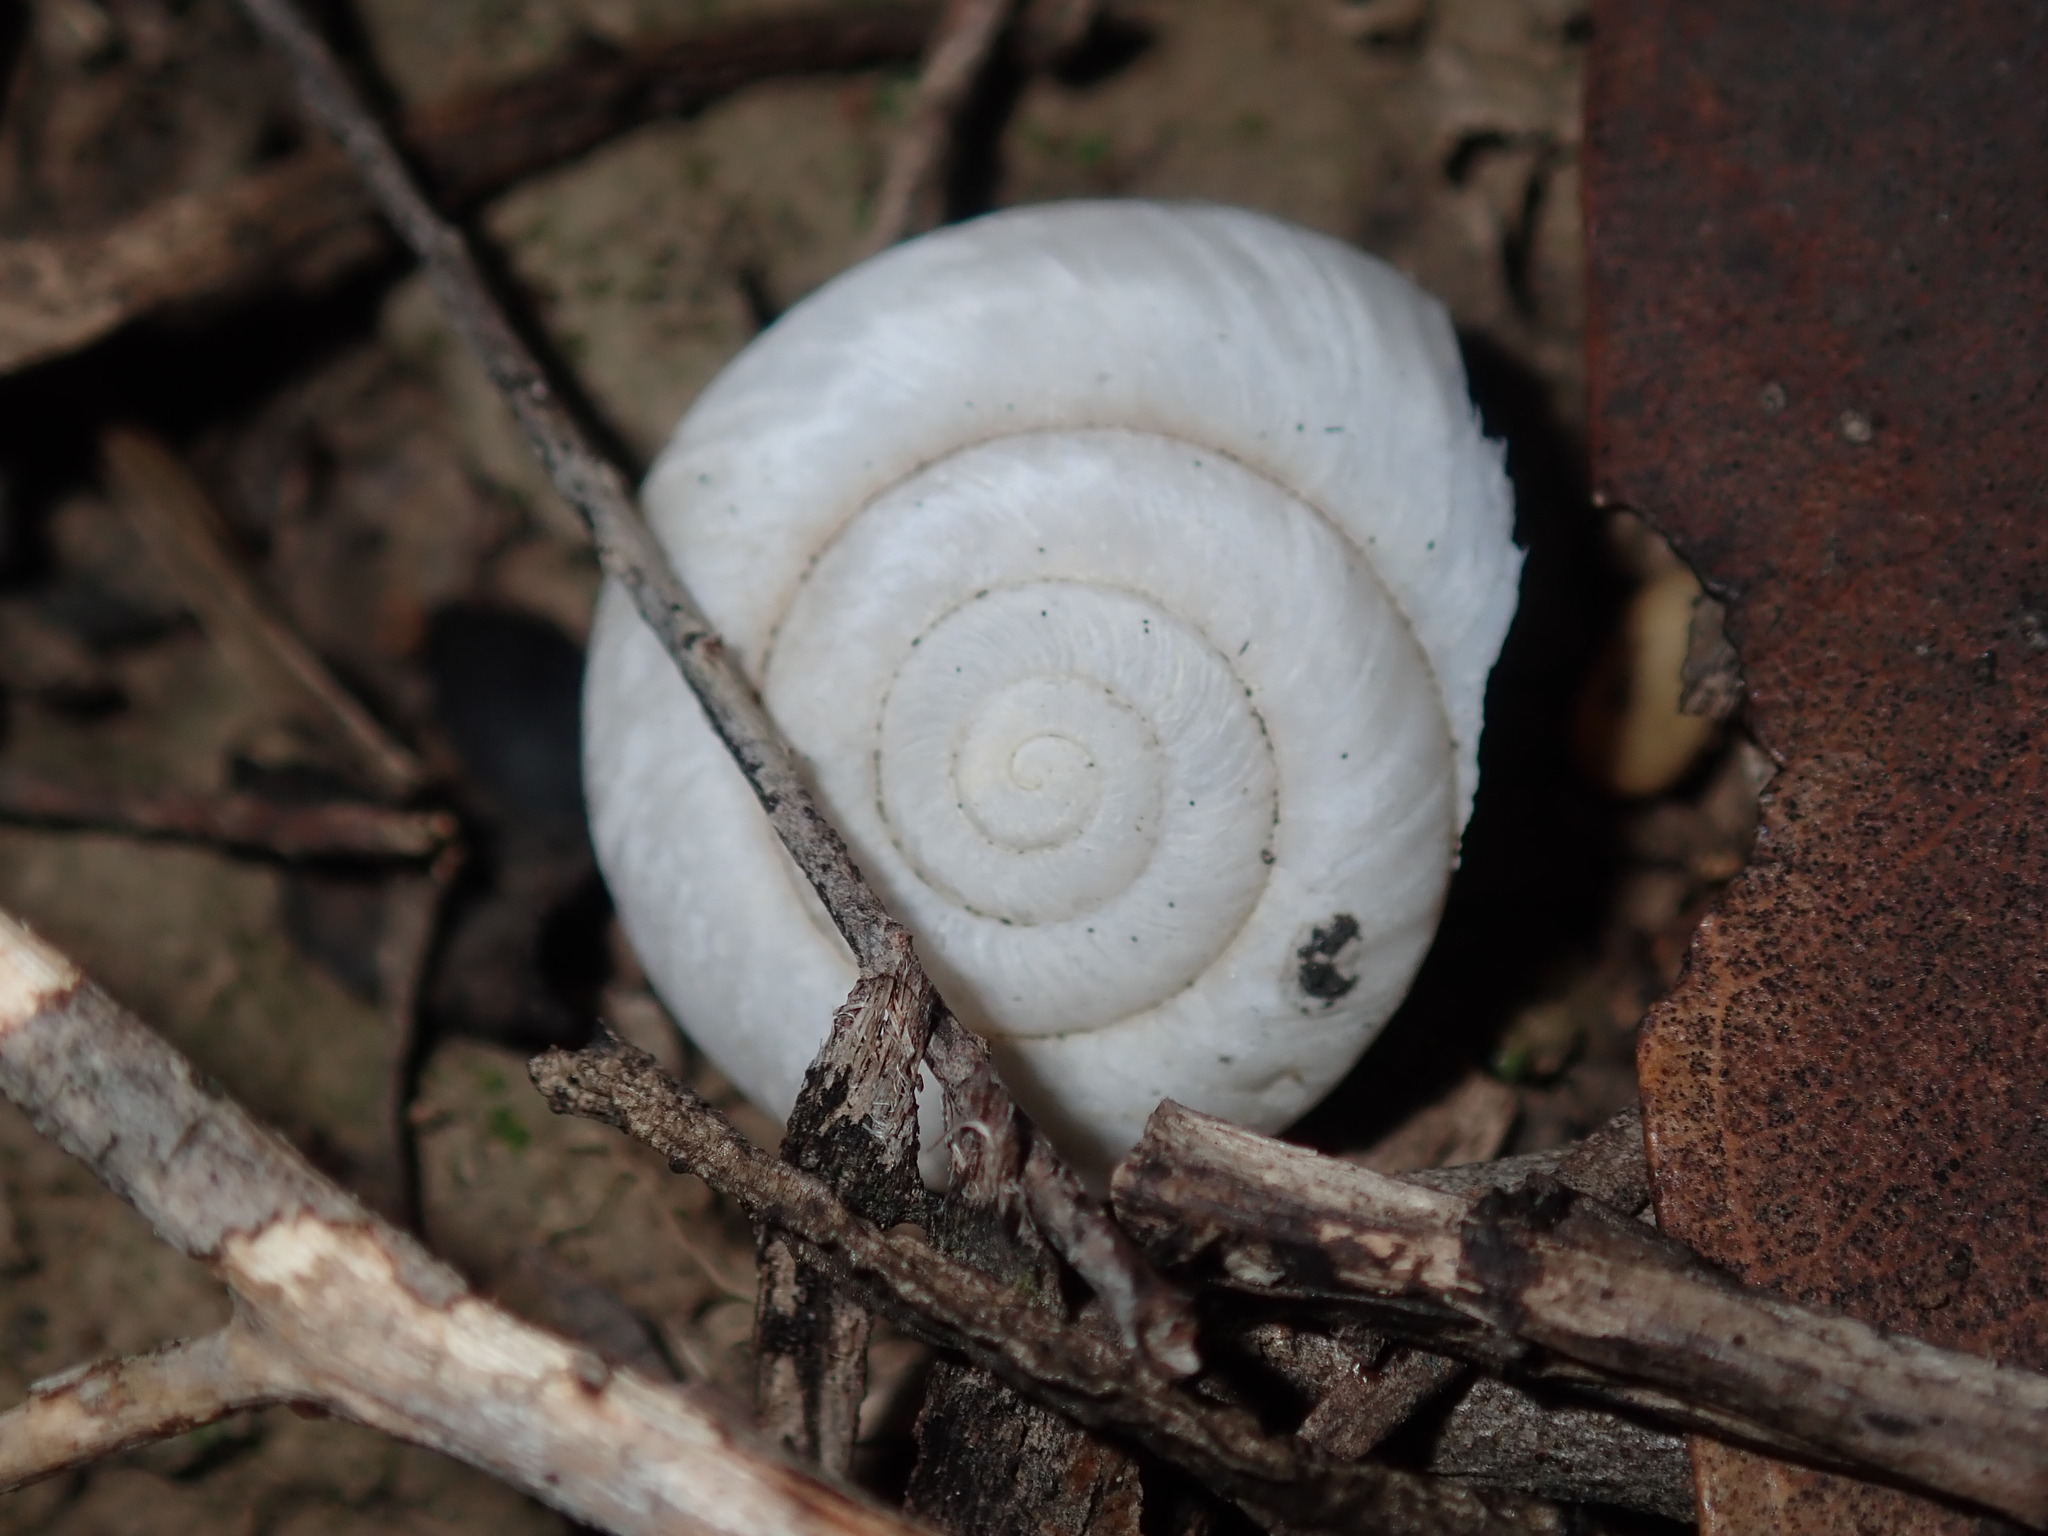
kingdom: Animalia
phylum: Mollusca
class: Gastropoda
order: Stylommatophora
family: Camaenidae
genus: Sauroconcha
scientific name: Sauroconcha sheai
